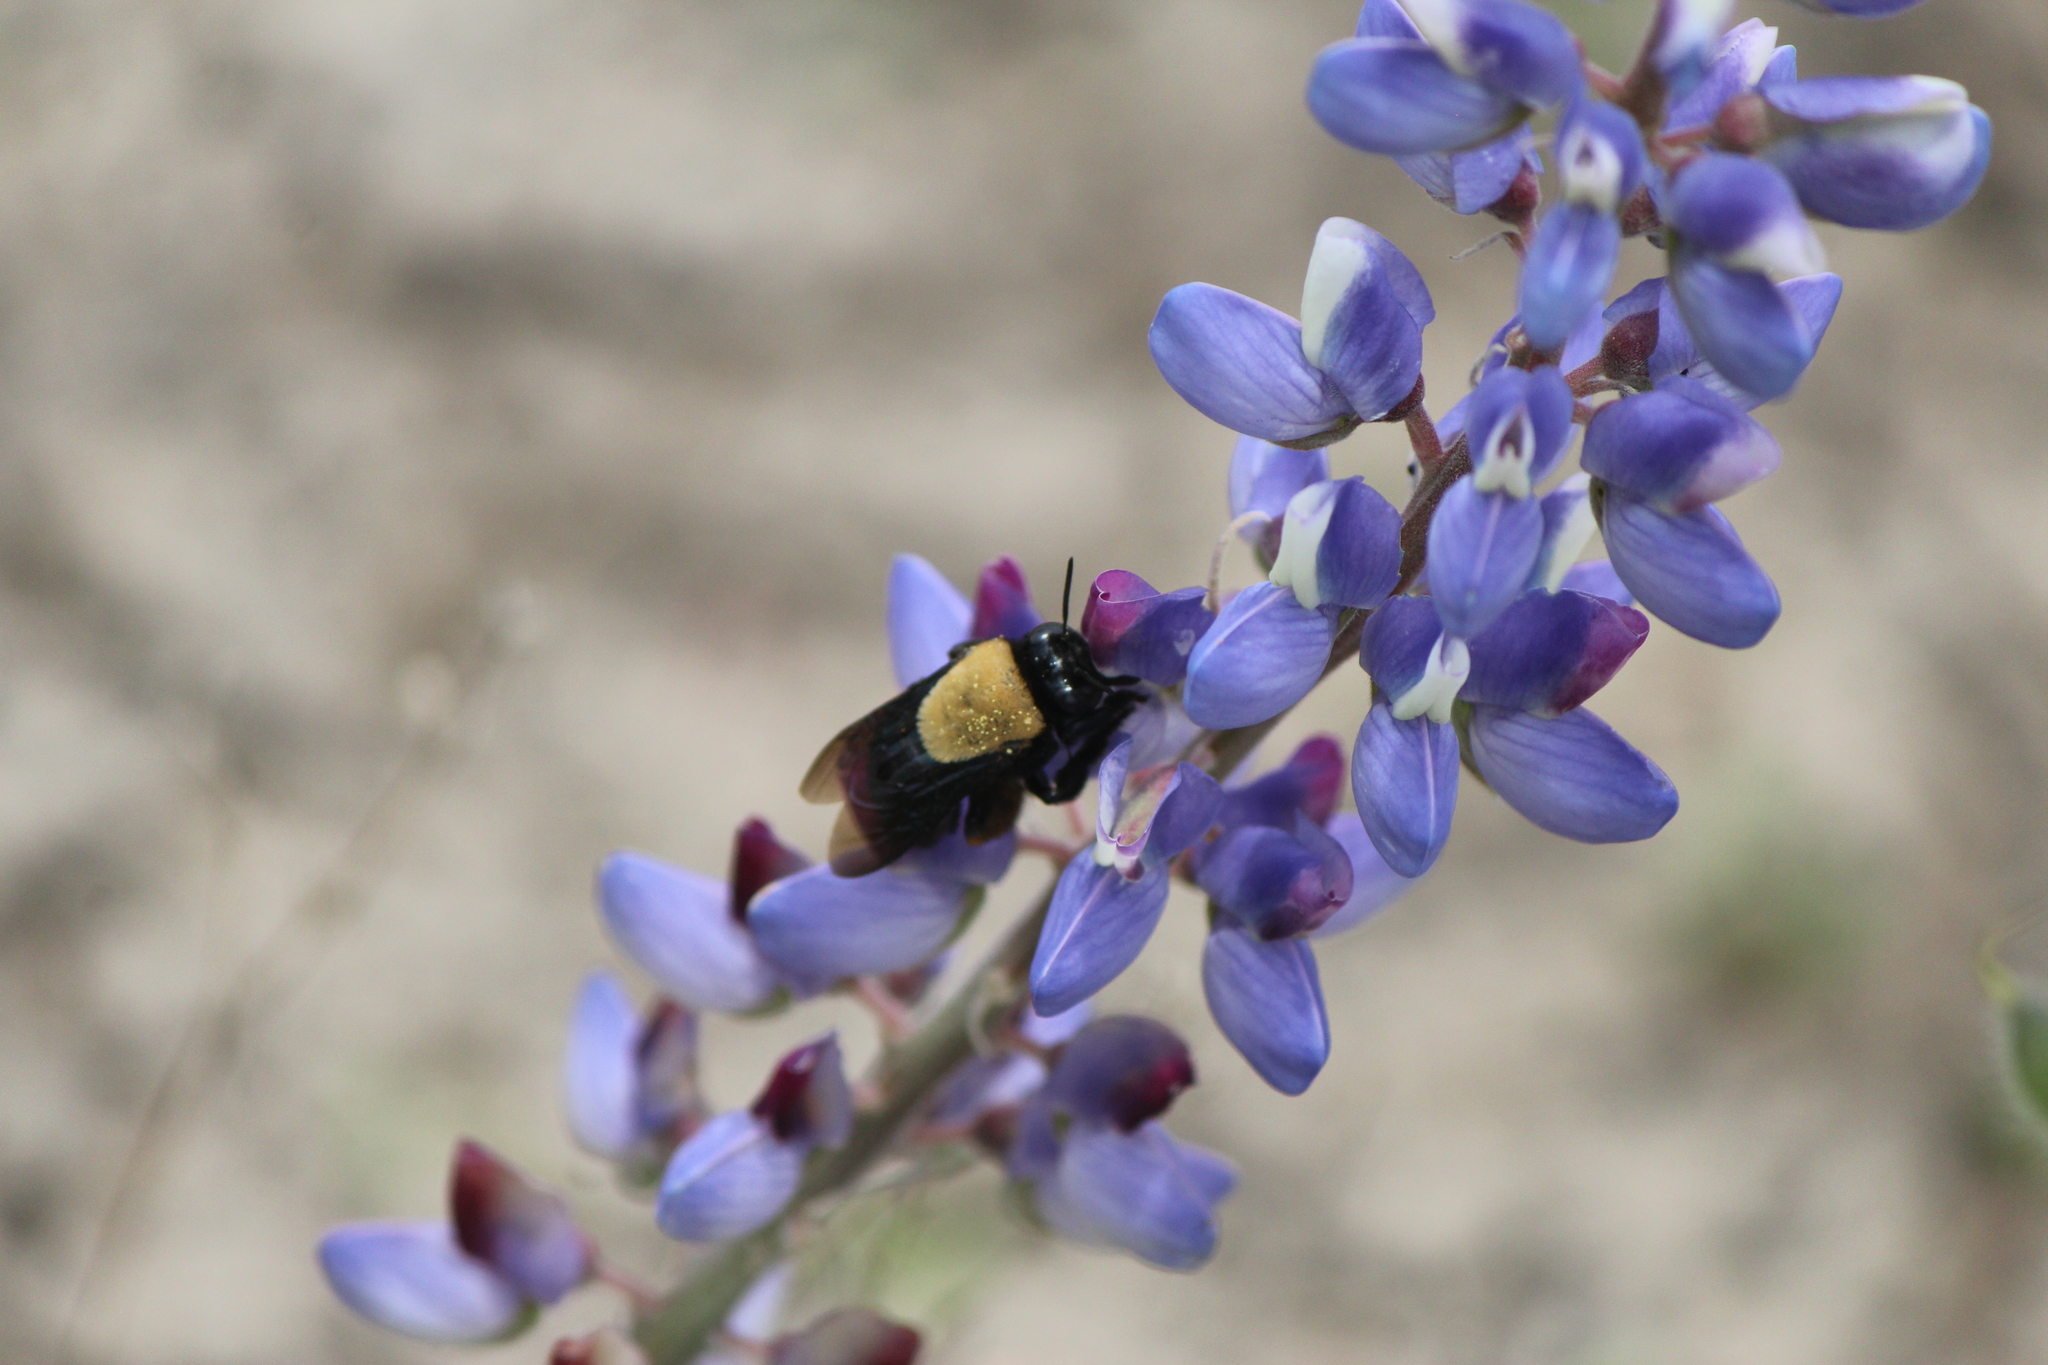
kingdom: Animalia
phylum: Arthropoda
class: Insecta
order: Hymenoptera
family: Apidae
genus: Centris
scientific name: Centris mexicana
